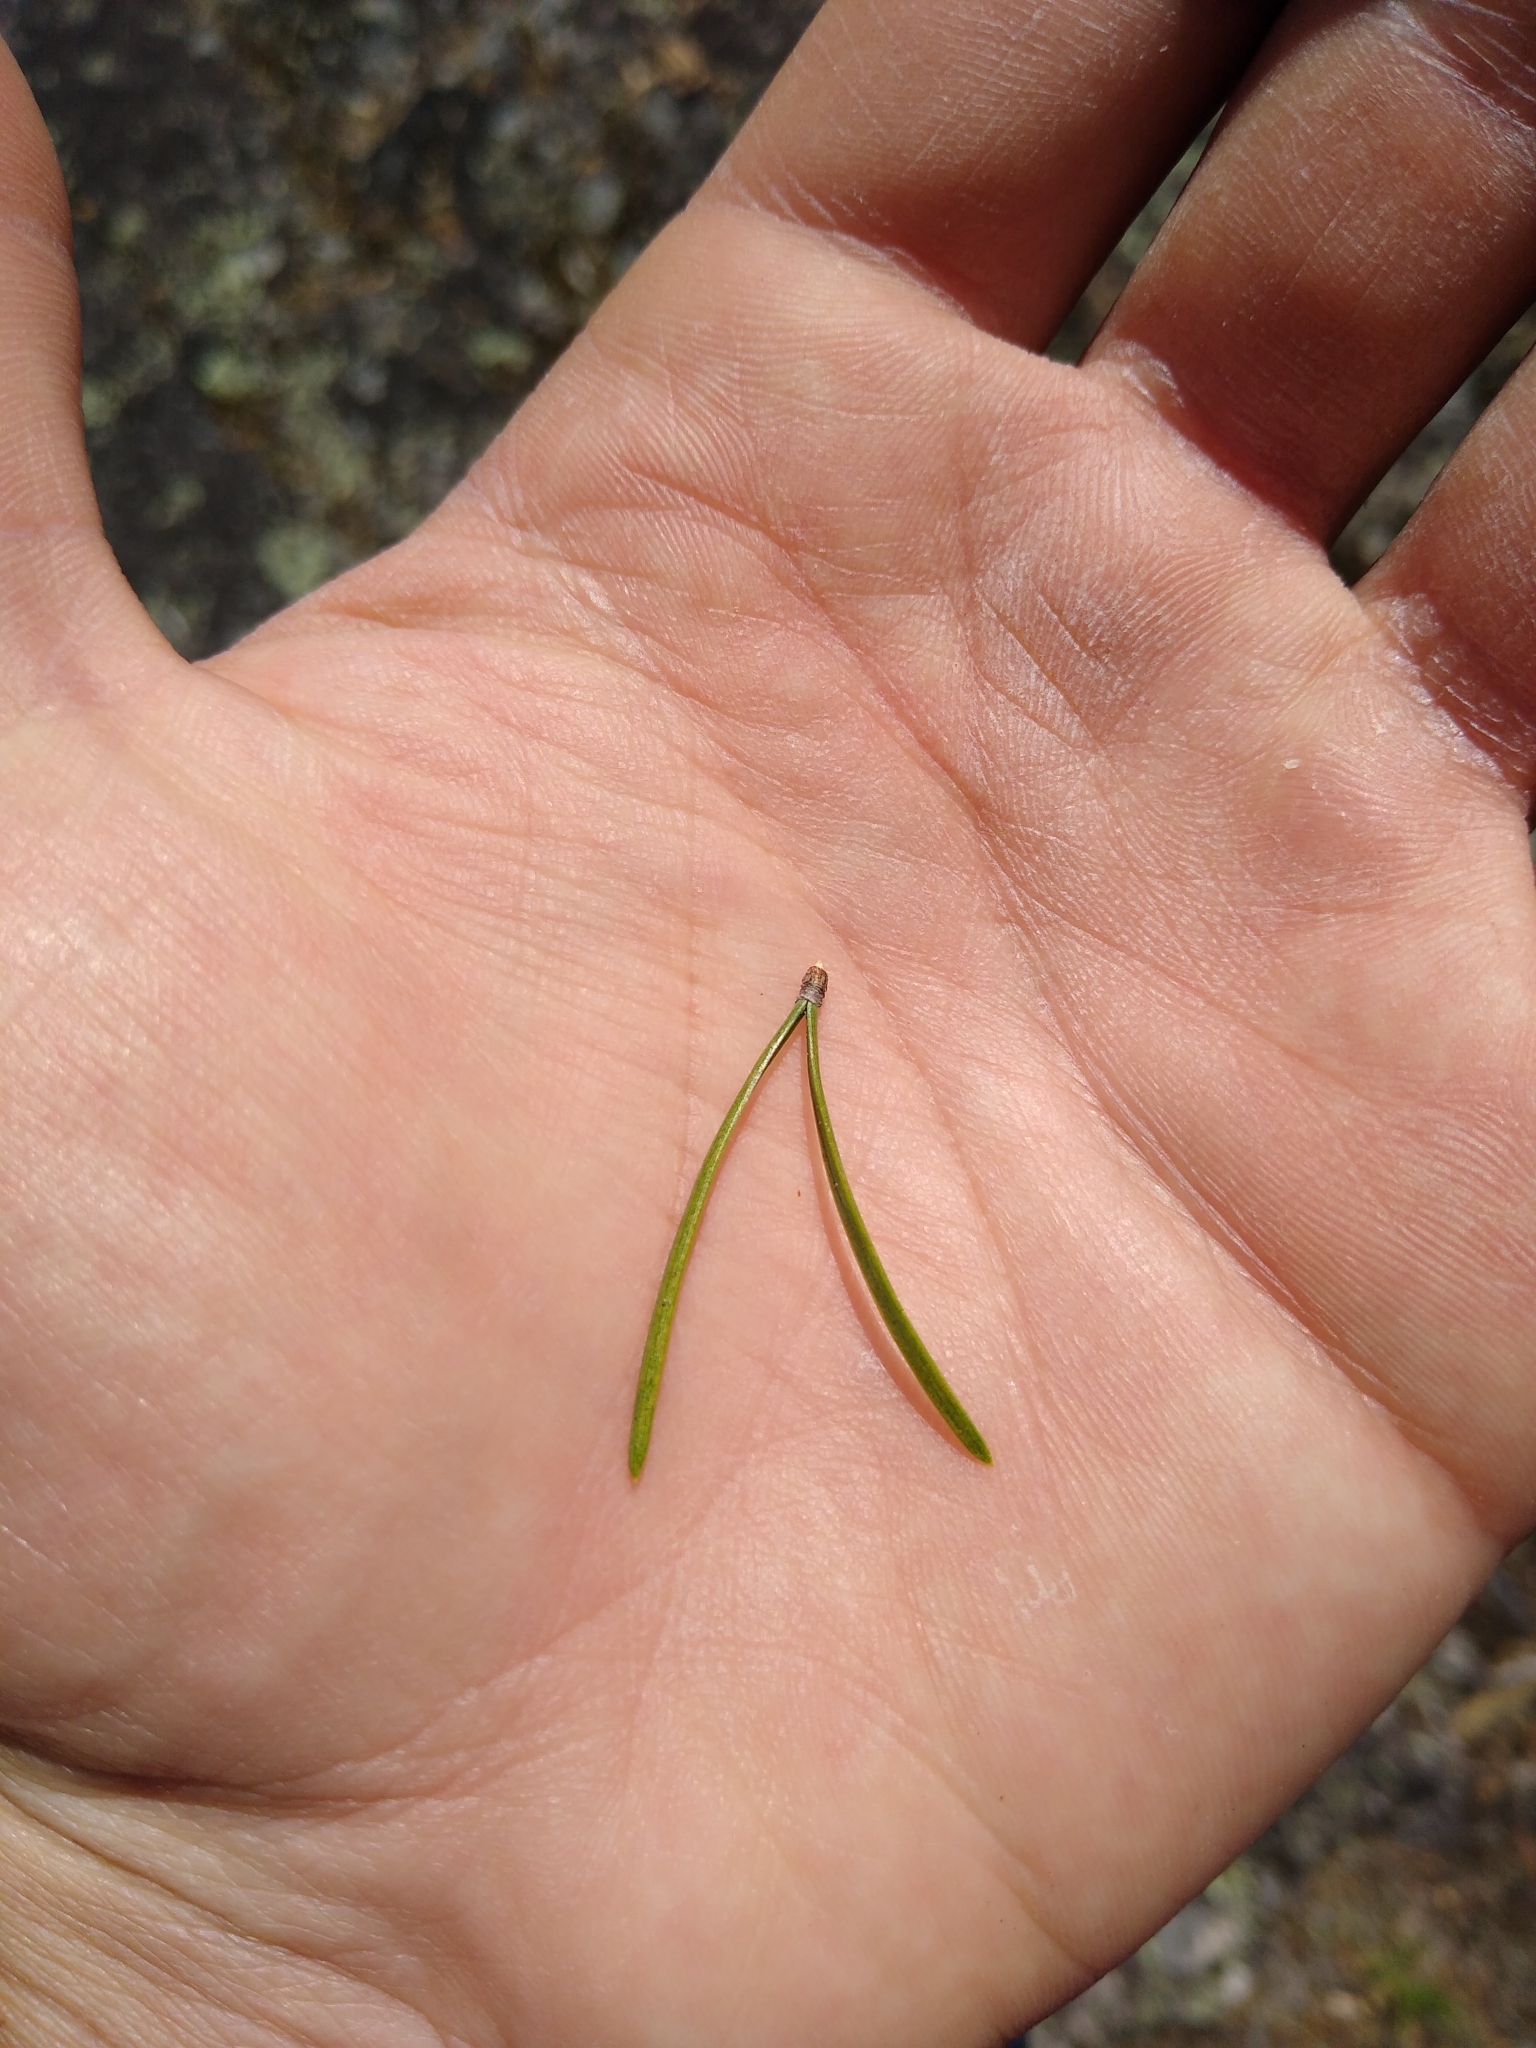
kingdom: Plantae
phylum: Tracheophyta
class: Pinopsida
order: Pinales
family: Pinaceae
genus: Pinus
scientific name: Pinus banksiana
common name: Jack pine
